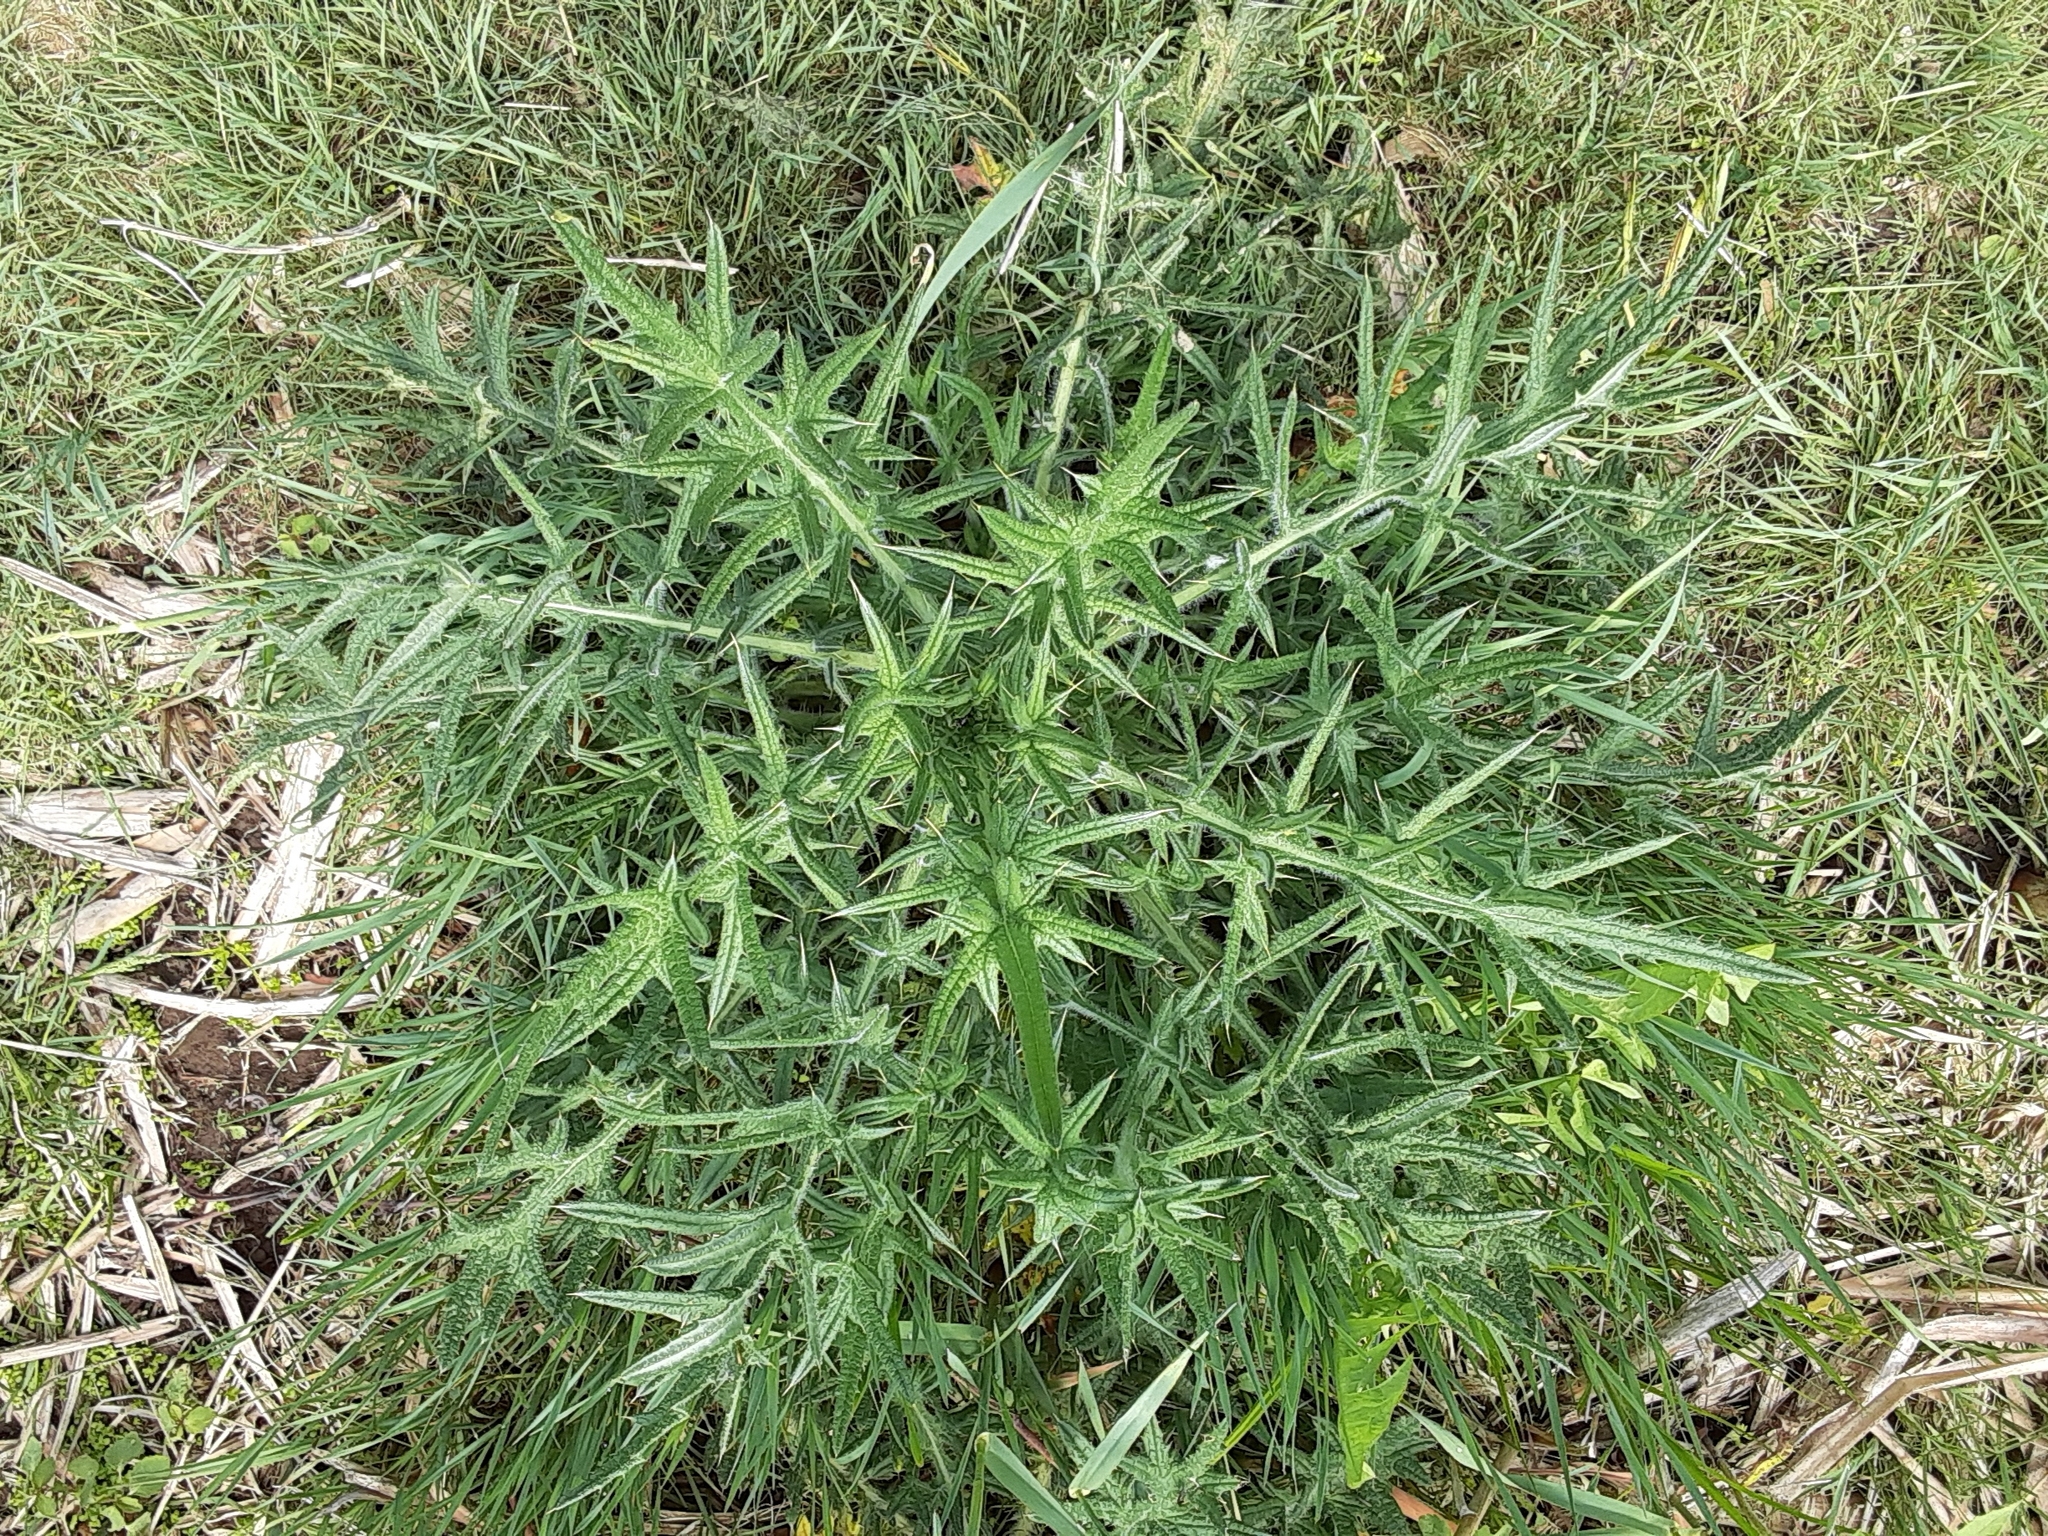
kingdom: Plantae
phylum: Tracheophyta
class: Magnoliopsida
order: Asterales
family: Asteraceae
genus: Cirsium
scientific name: Cirsium vulgare
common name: Bull thistle
